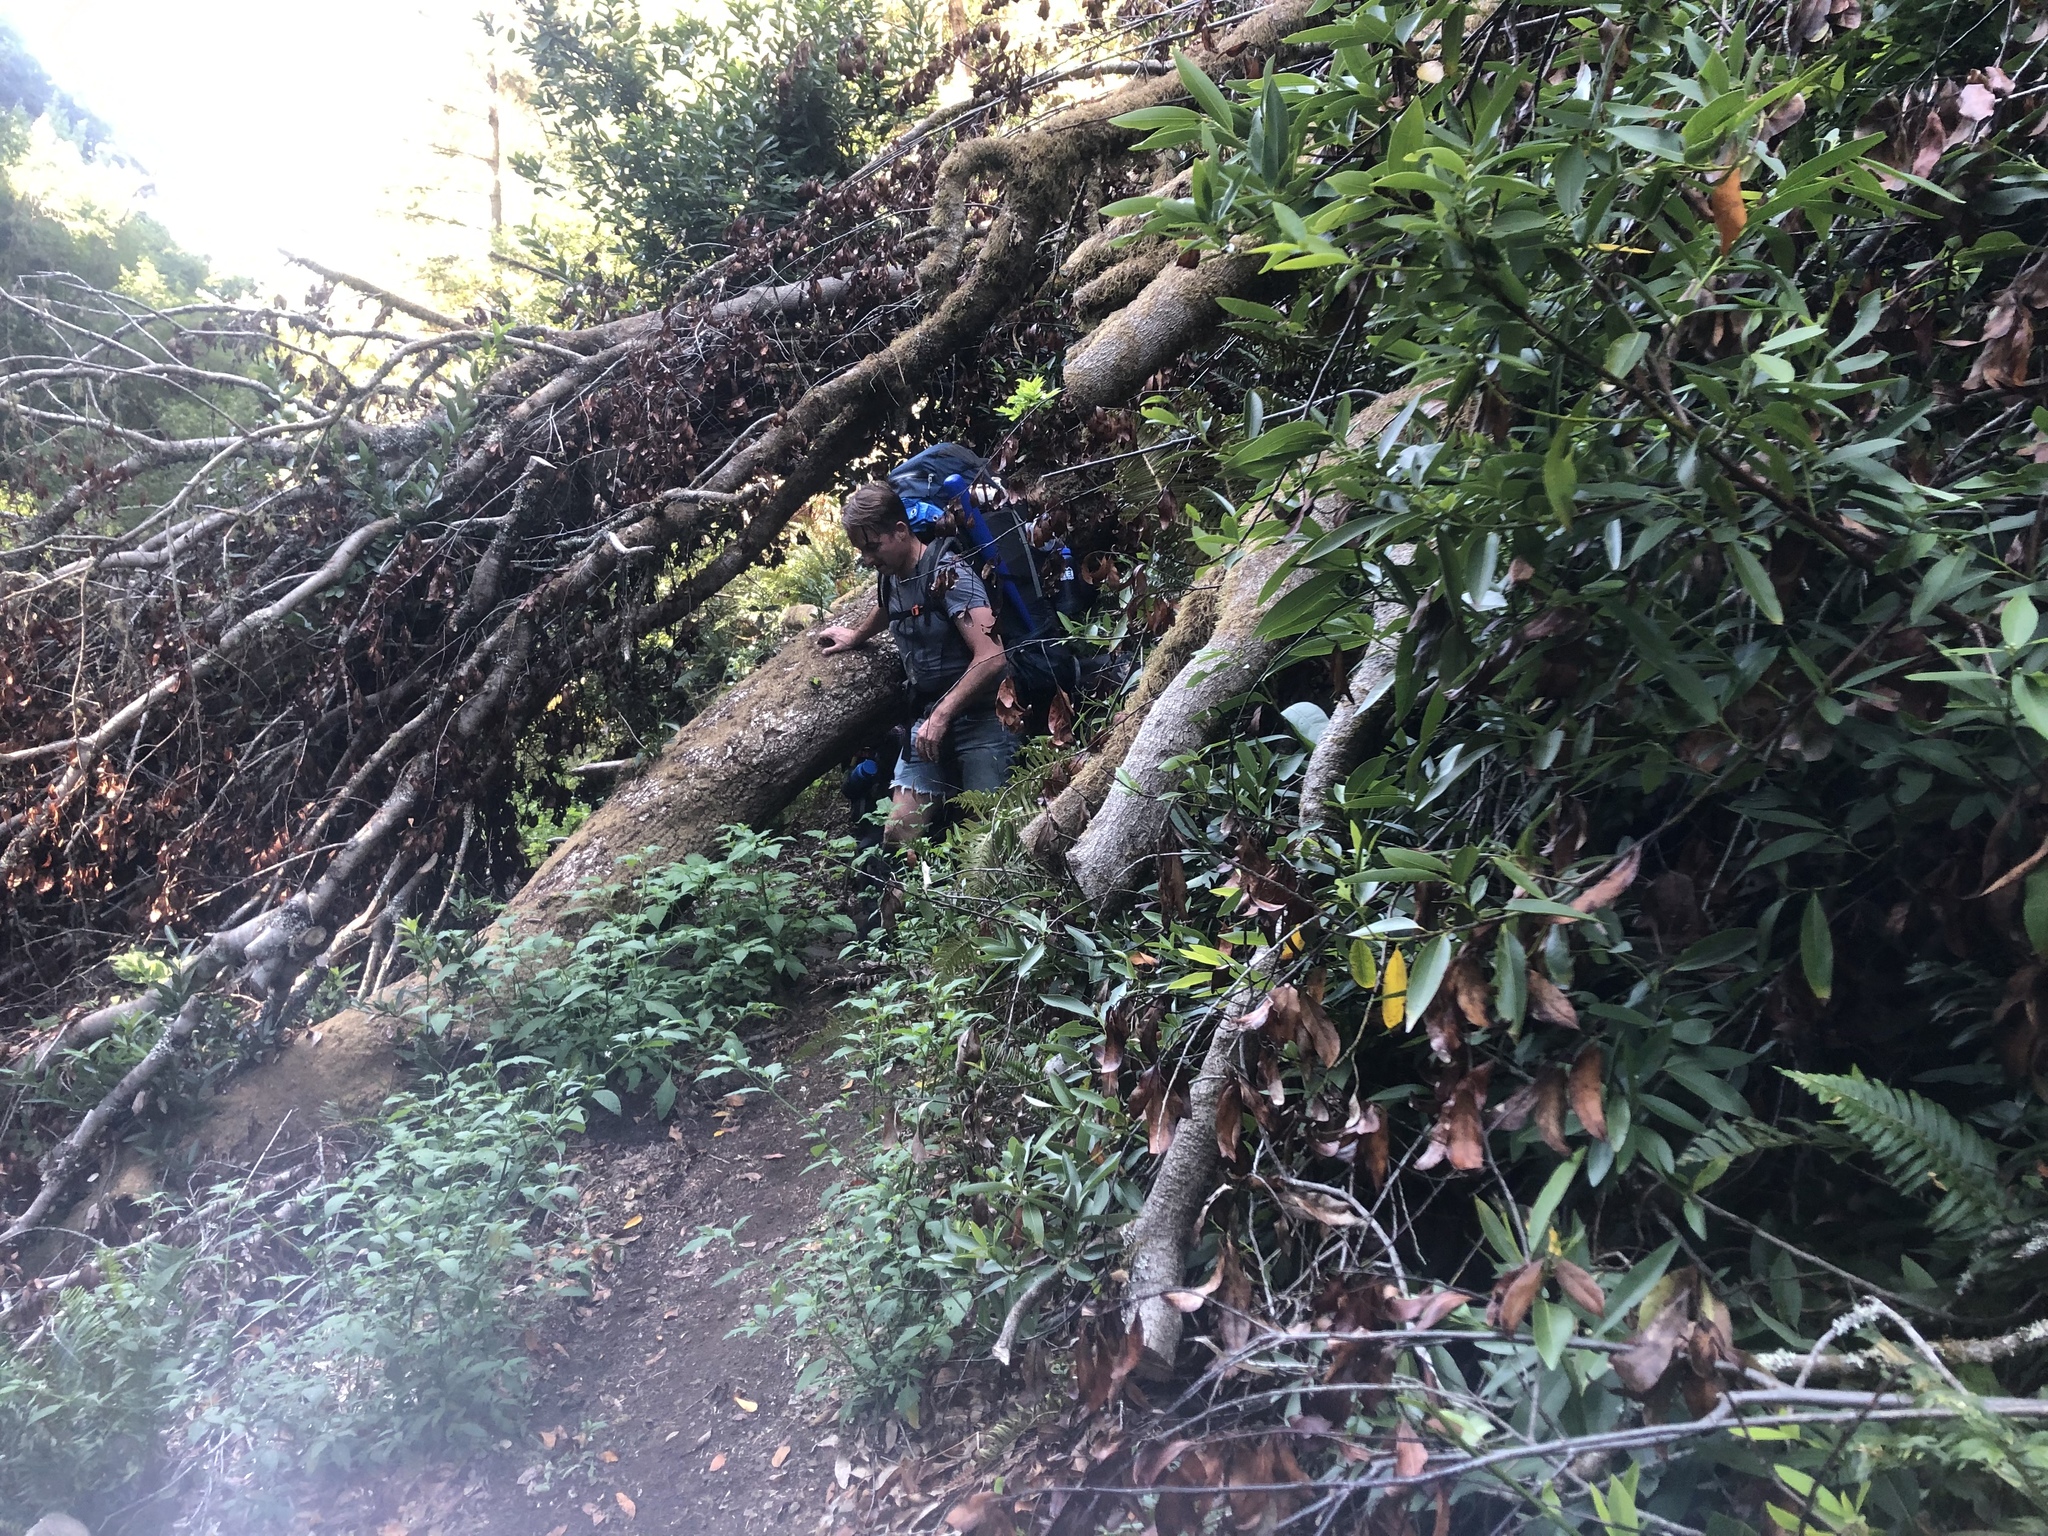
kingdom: Plantae
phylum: Tracheophyta
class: Magnoliopsida
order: Laurales
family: Lauraceae
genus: Umbellularia
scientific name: Umbellularia californica
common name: California bay
